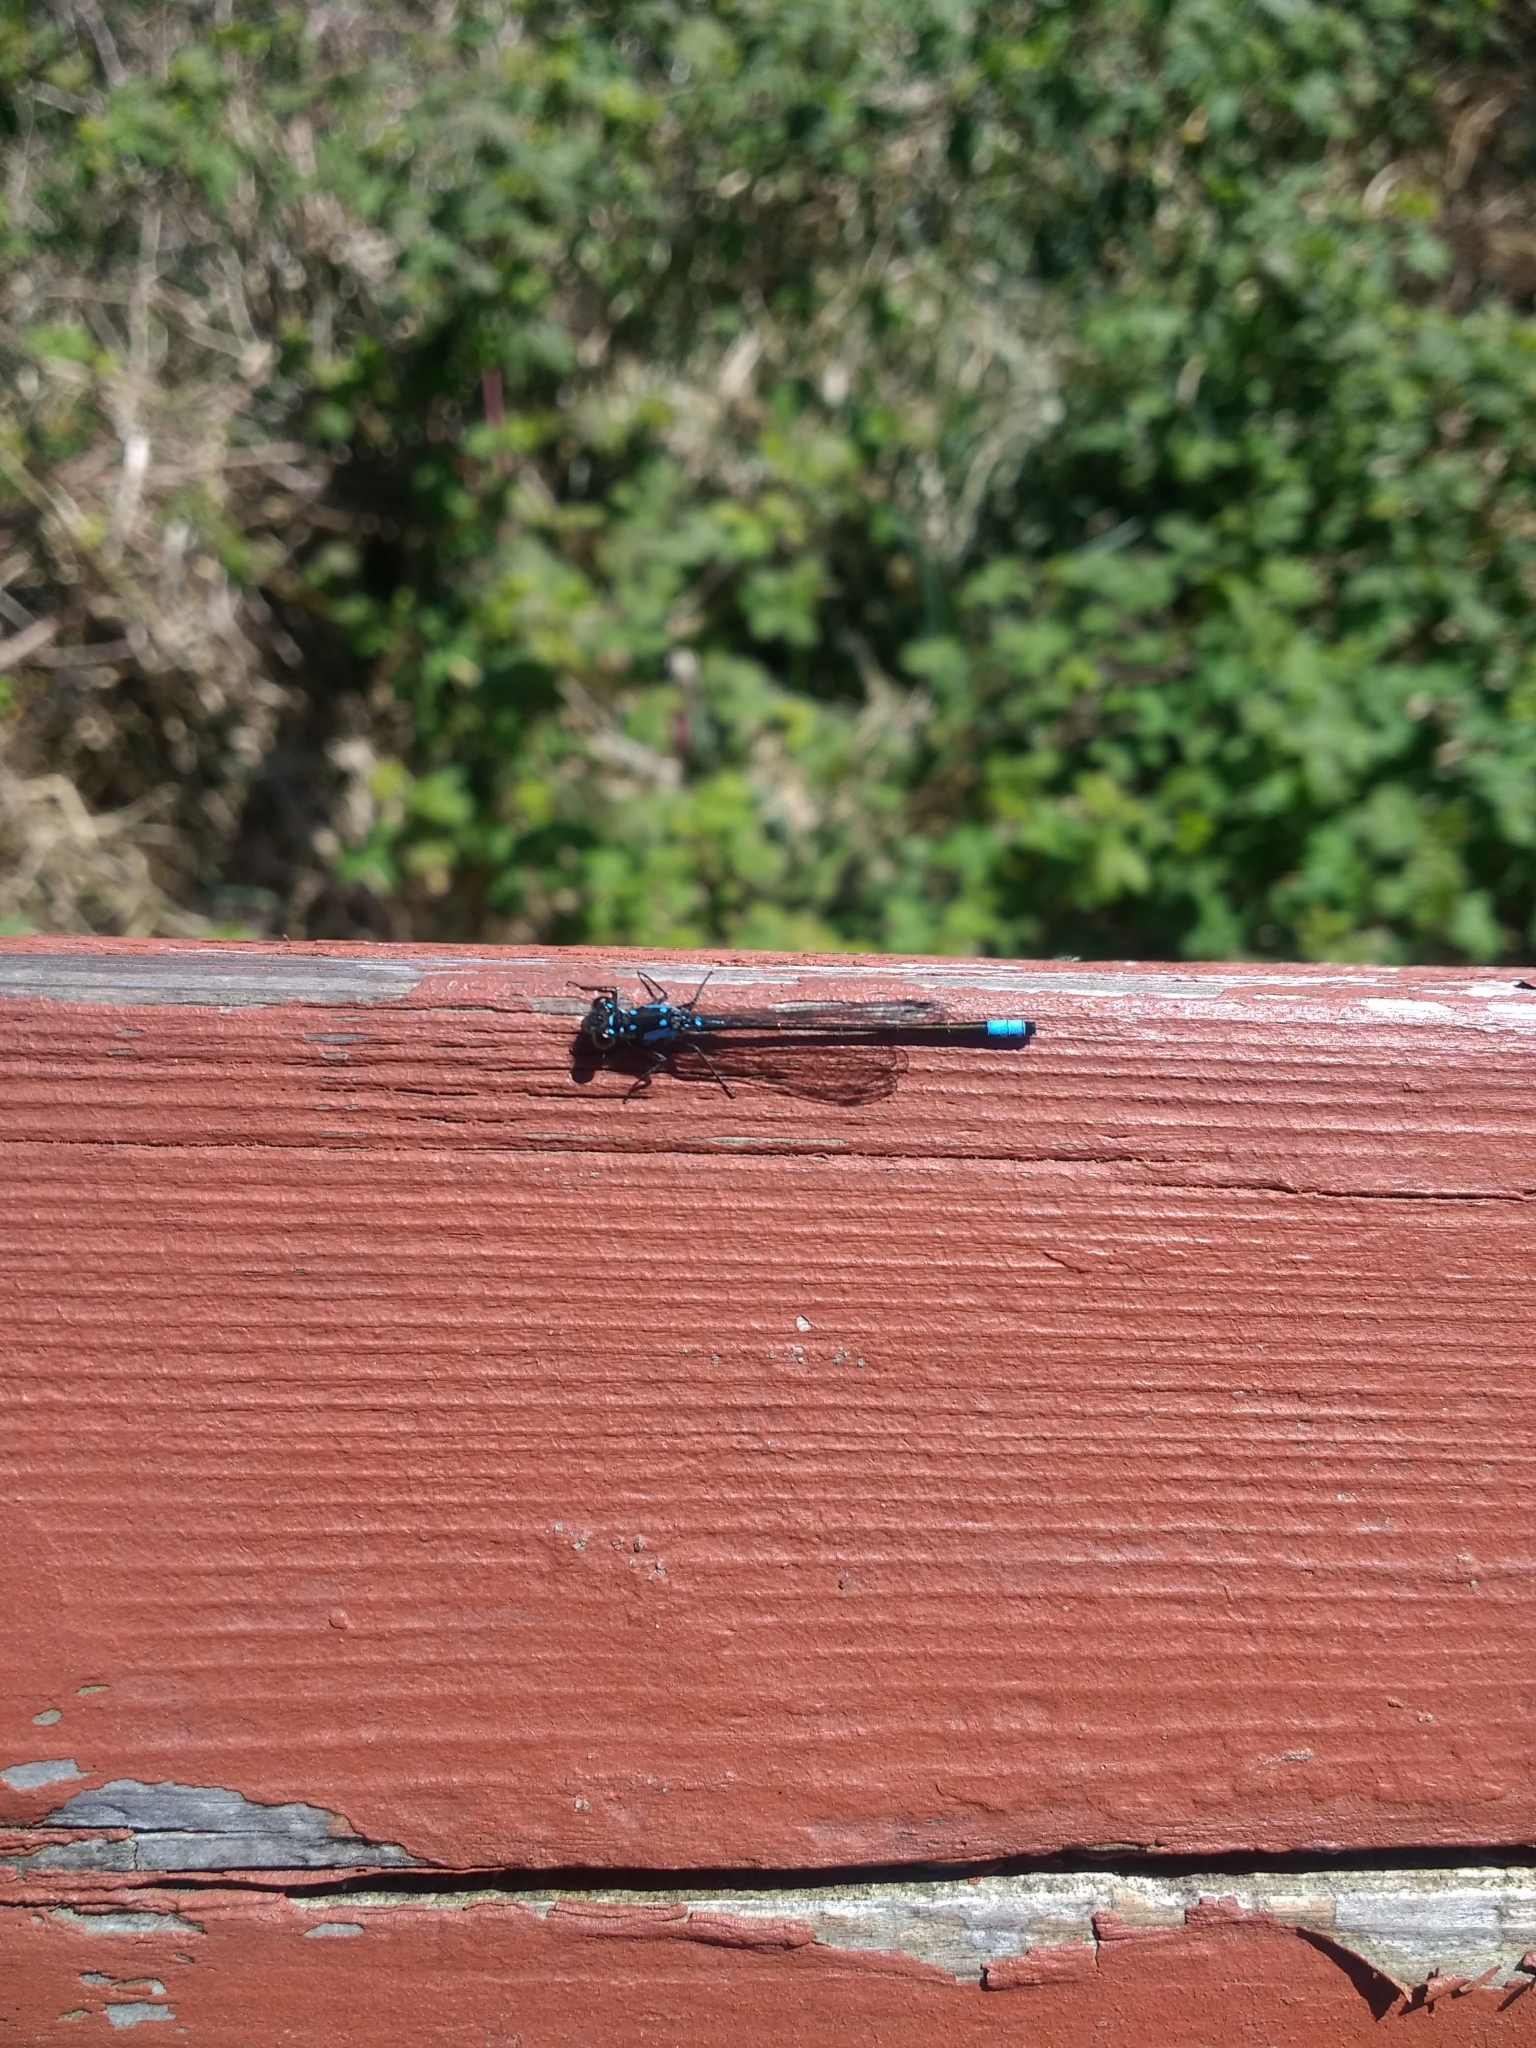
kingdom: Animalia
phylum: Arthropoda
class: Insecta
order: Odonata
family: Coenagrionidae
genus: Ischnura
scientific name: Ischnura cervula
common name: Pacific forktail
